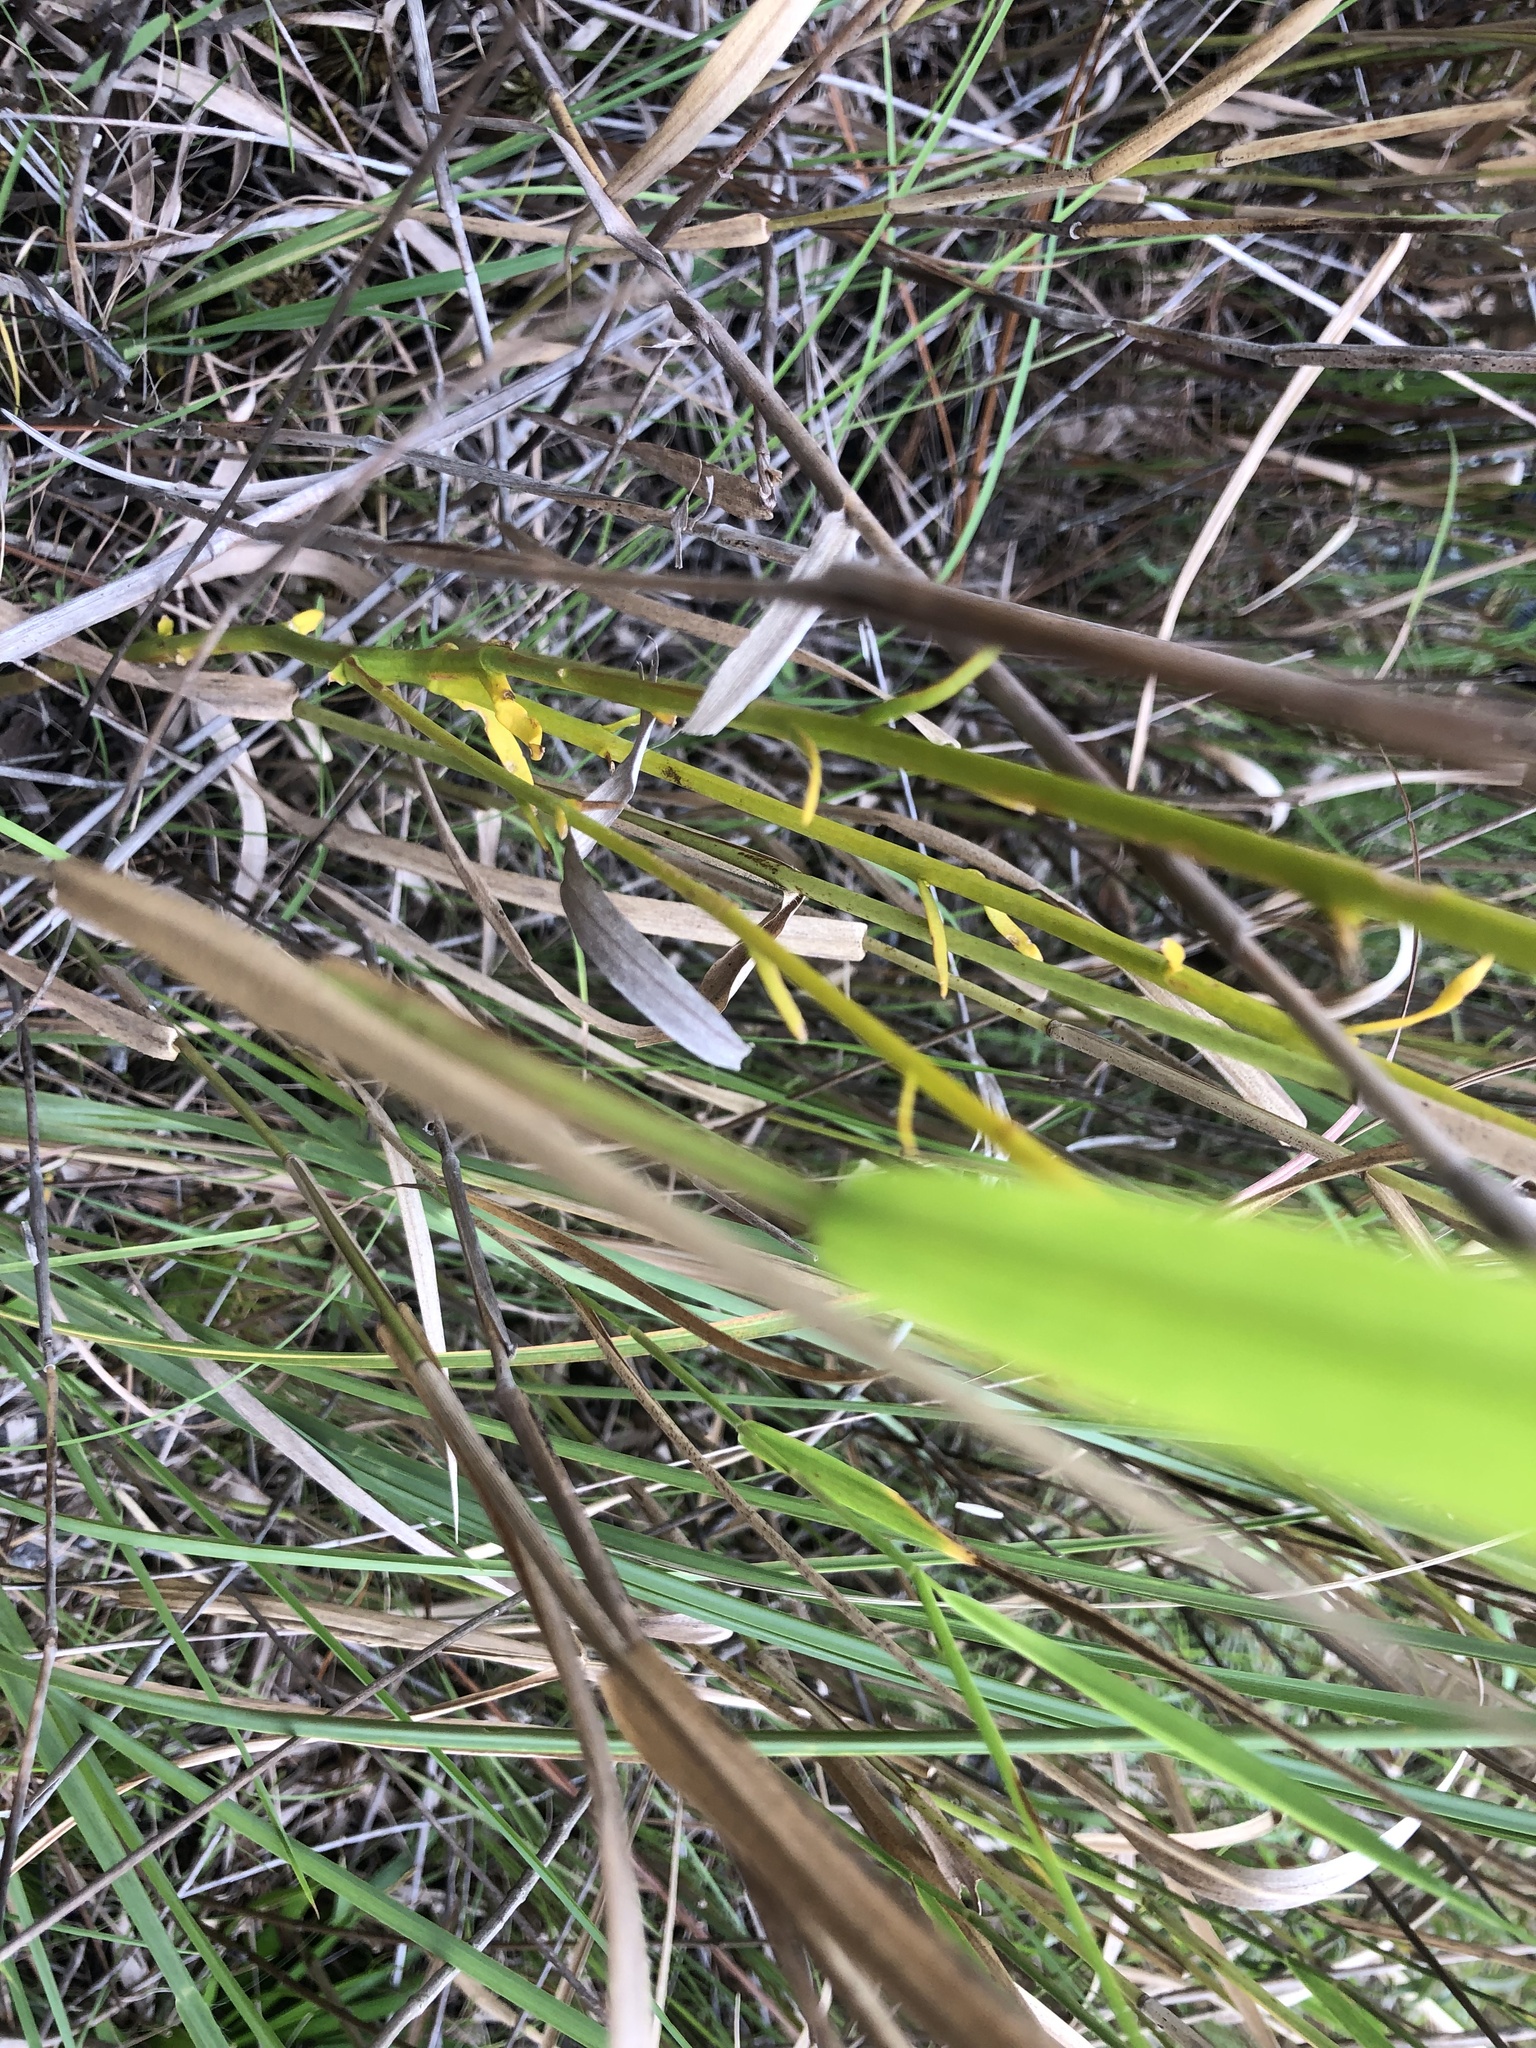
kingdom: Plantae
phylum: Tracheophyta
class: Magnoliopsida
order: Fabales
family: Polygalaceae
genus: Polygala
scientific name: Polygala cymosa
